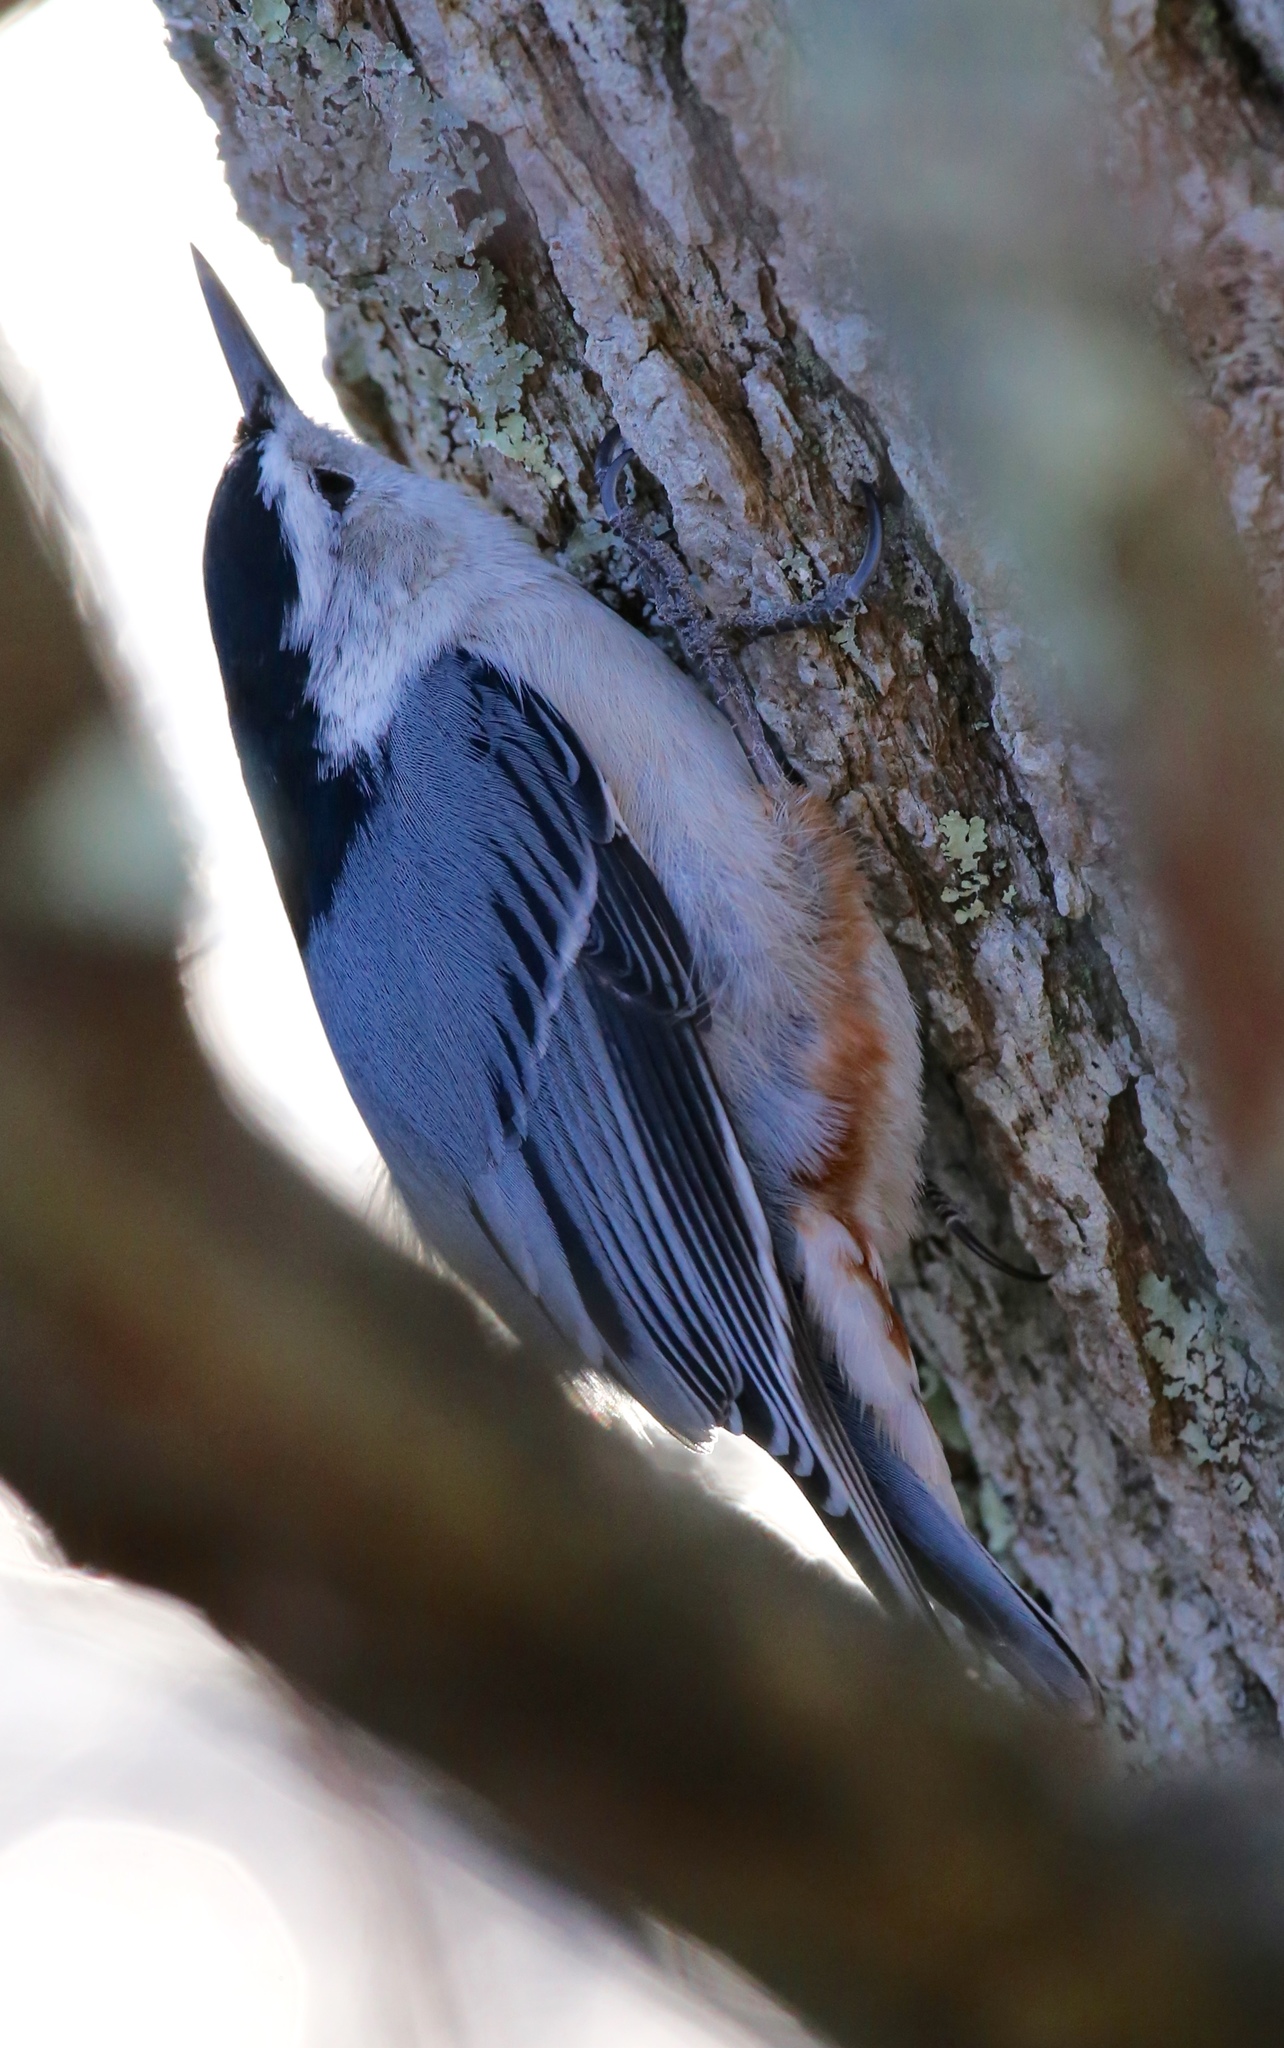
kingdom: Animalia
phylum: Chordata
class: Aves
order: Passeriformes
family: Sittidae
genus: Sitta
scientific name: Sitta carolinensis
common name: White-breasted nuthatch
